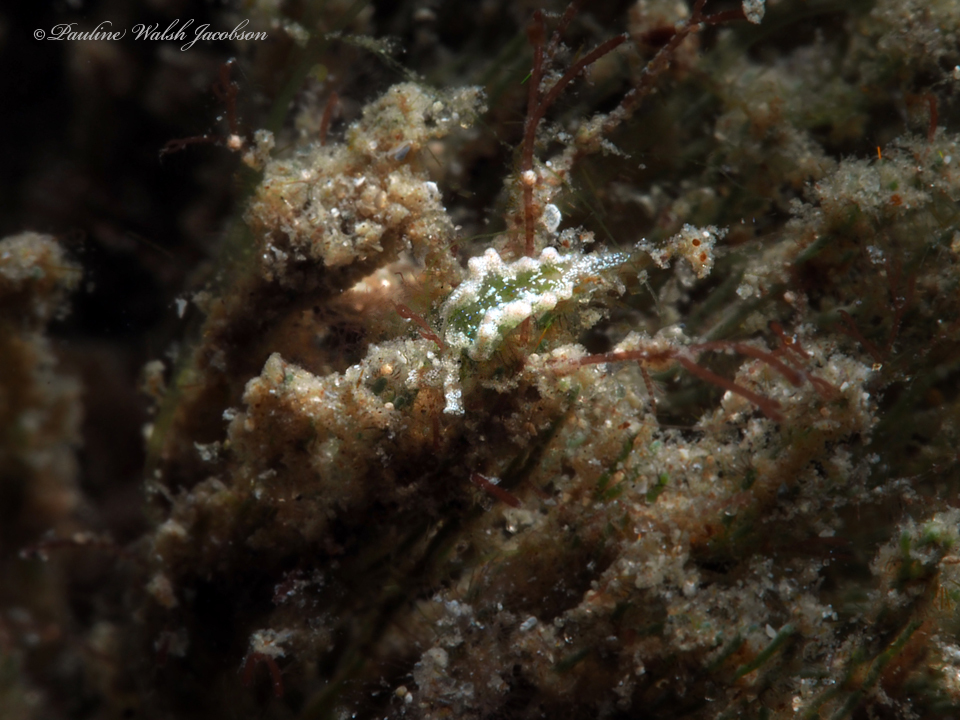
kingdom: Animalia
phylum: Mollusca
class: Gastropoda
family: Plakobranchidae
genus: Elysia
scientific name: Elysia papillosa
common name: Papillose elysia
